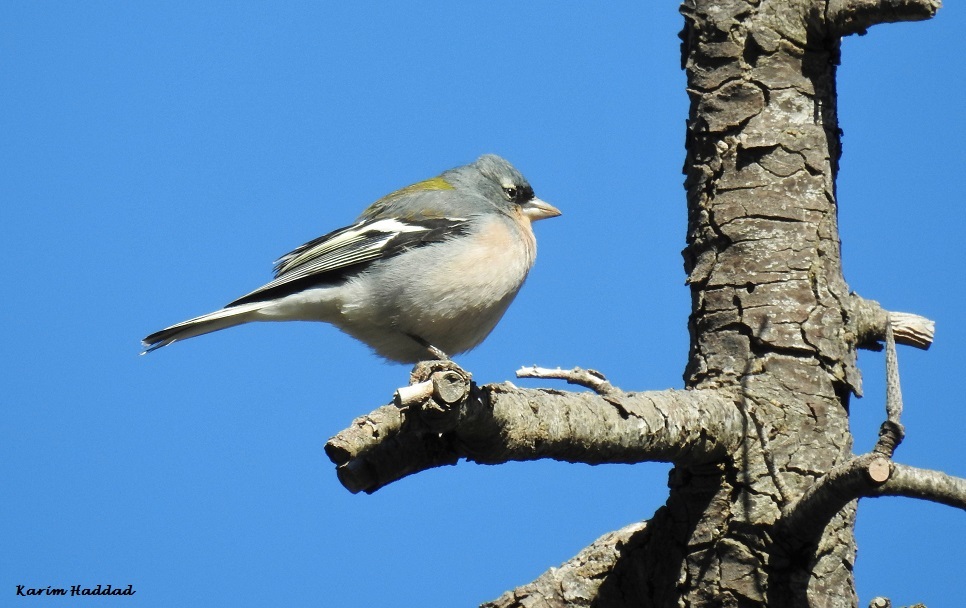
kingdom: Animalia
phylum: Chordata
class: Aves
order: Passeriformes
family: Fringillidae
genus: Fringilla
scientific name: Fringilla spodiogenys
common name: African chaffinch
